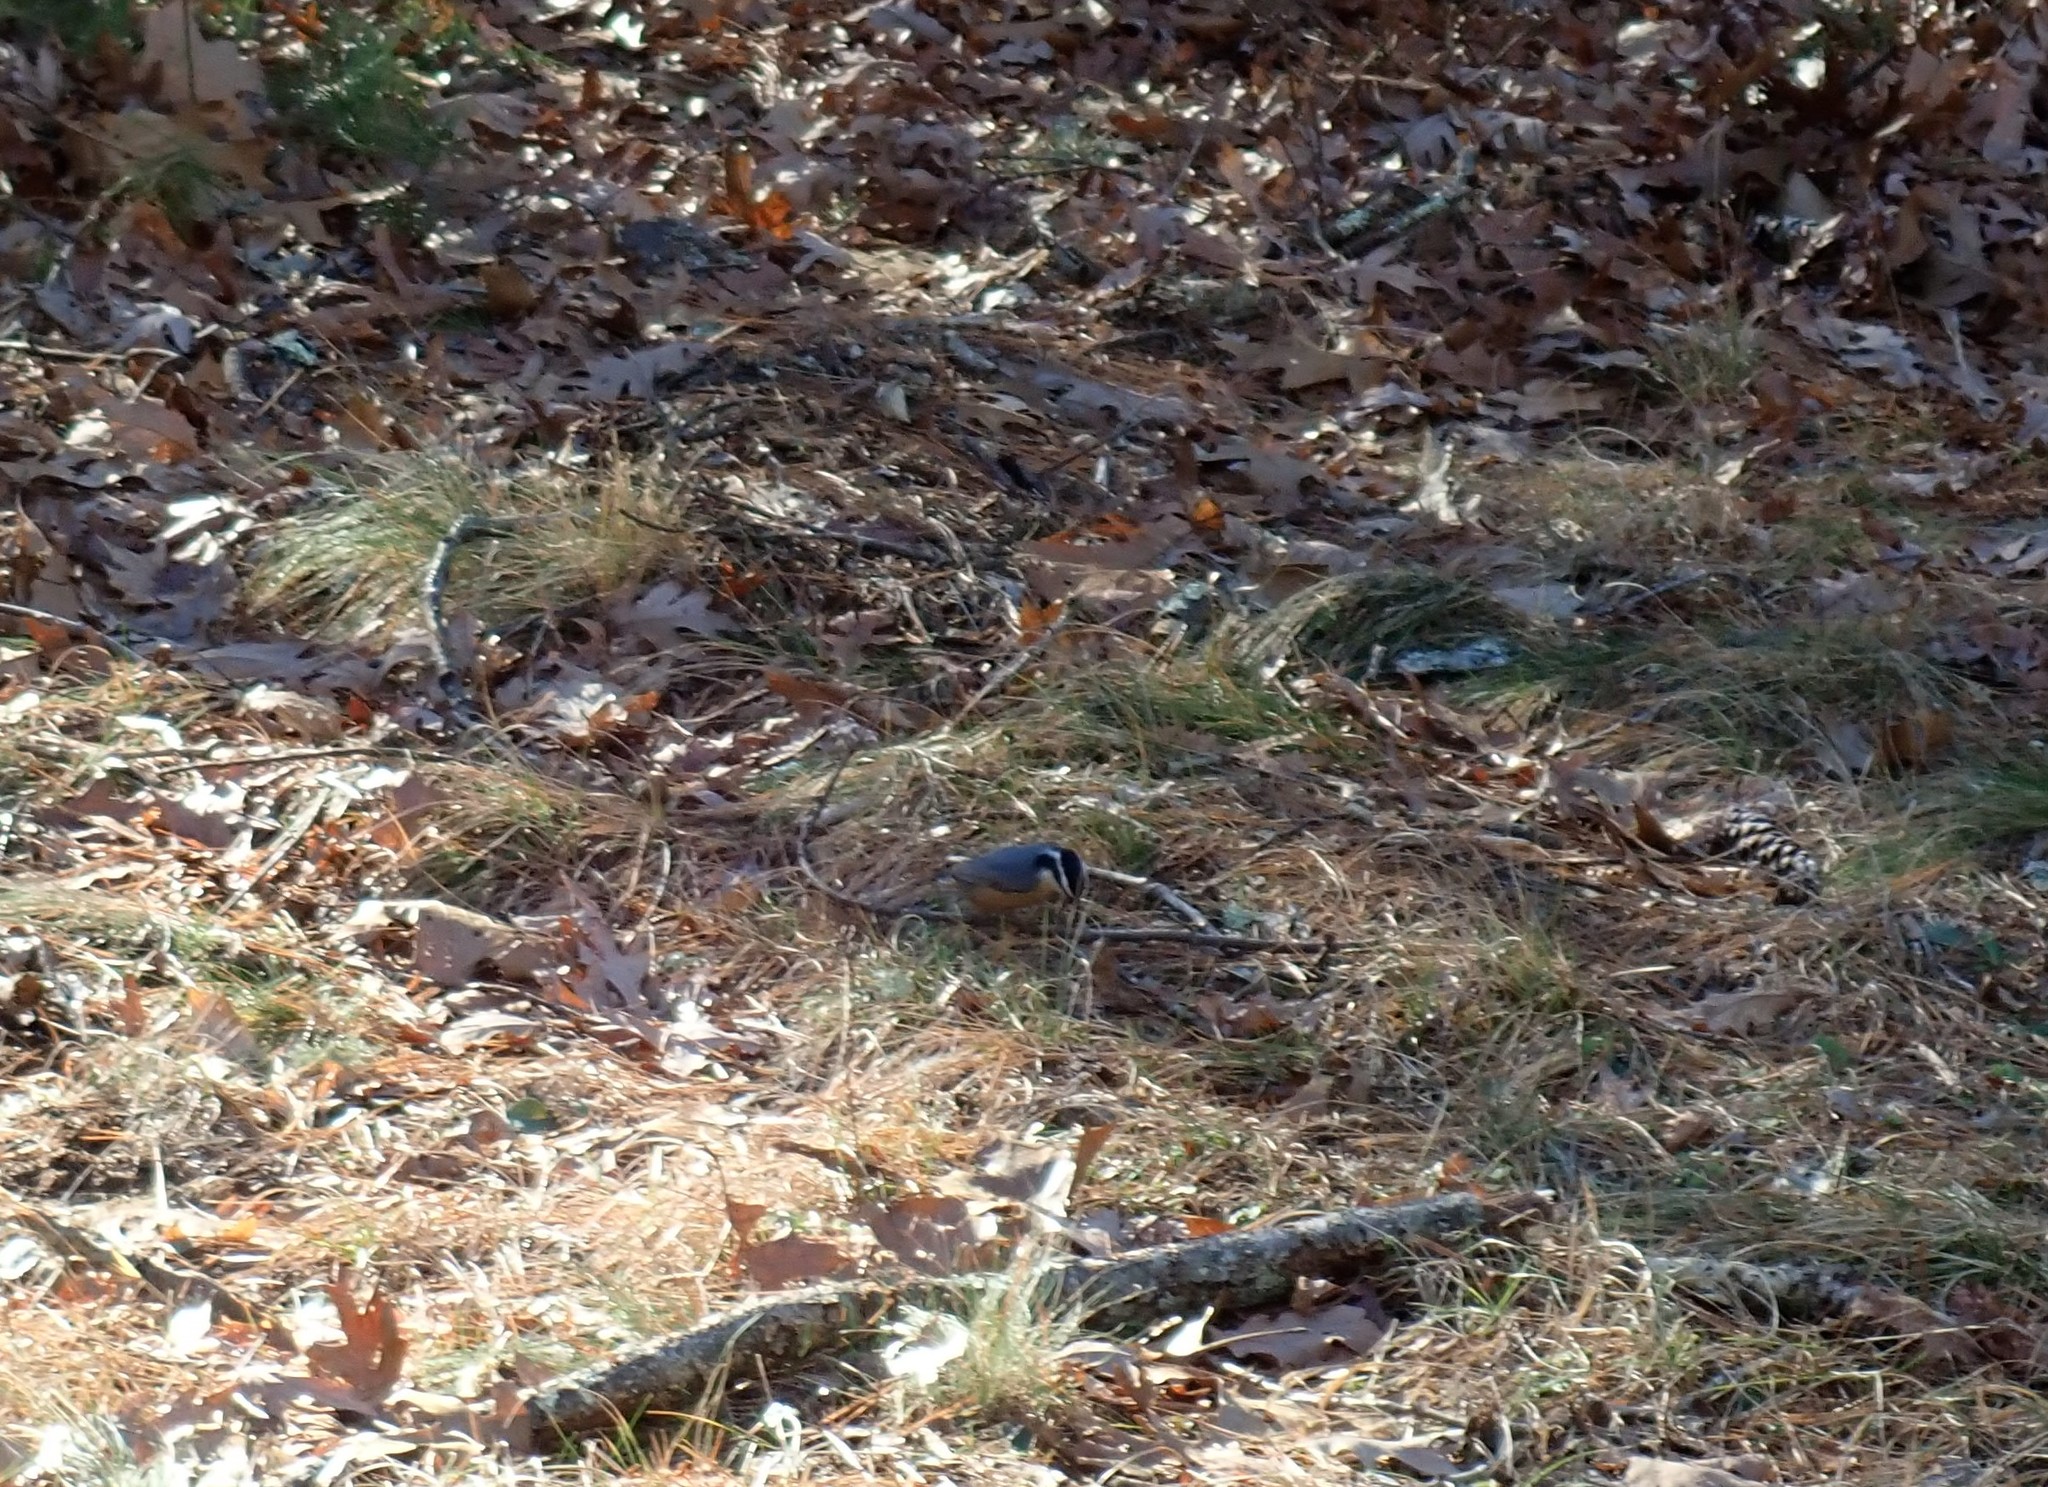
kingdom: Animalia
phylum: Chordata
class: Aves
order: Passeriformes
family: Sittidae
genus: Sitta
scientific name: Sitta canadensis
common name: Red-breasted nuthatch
